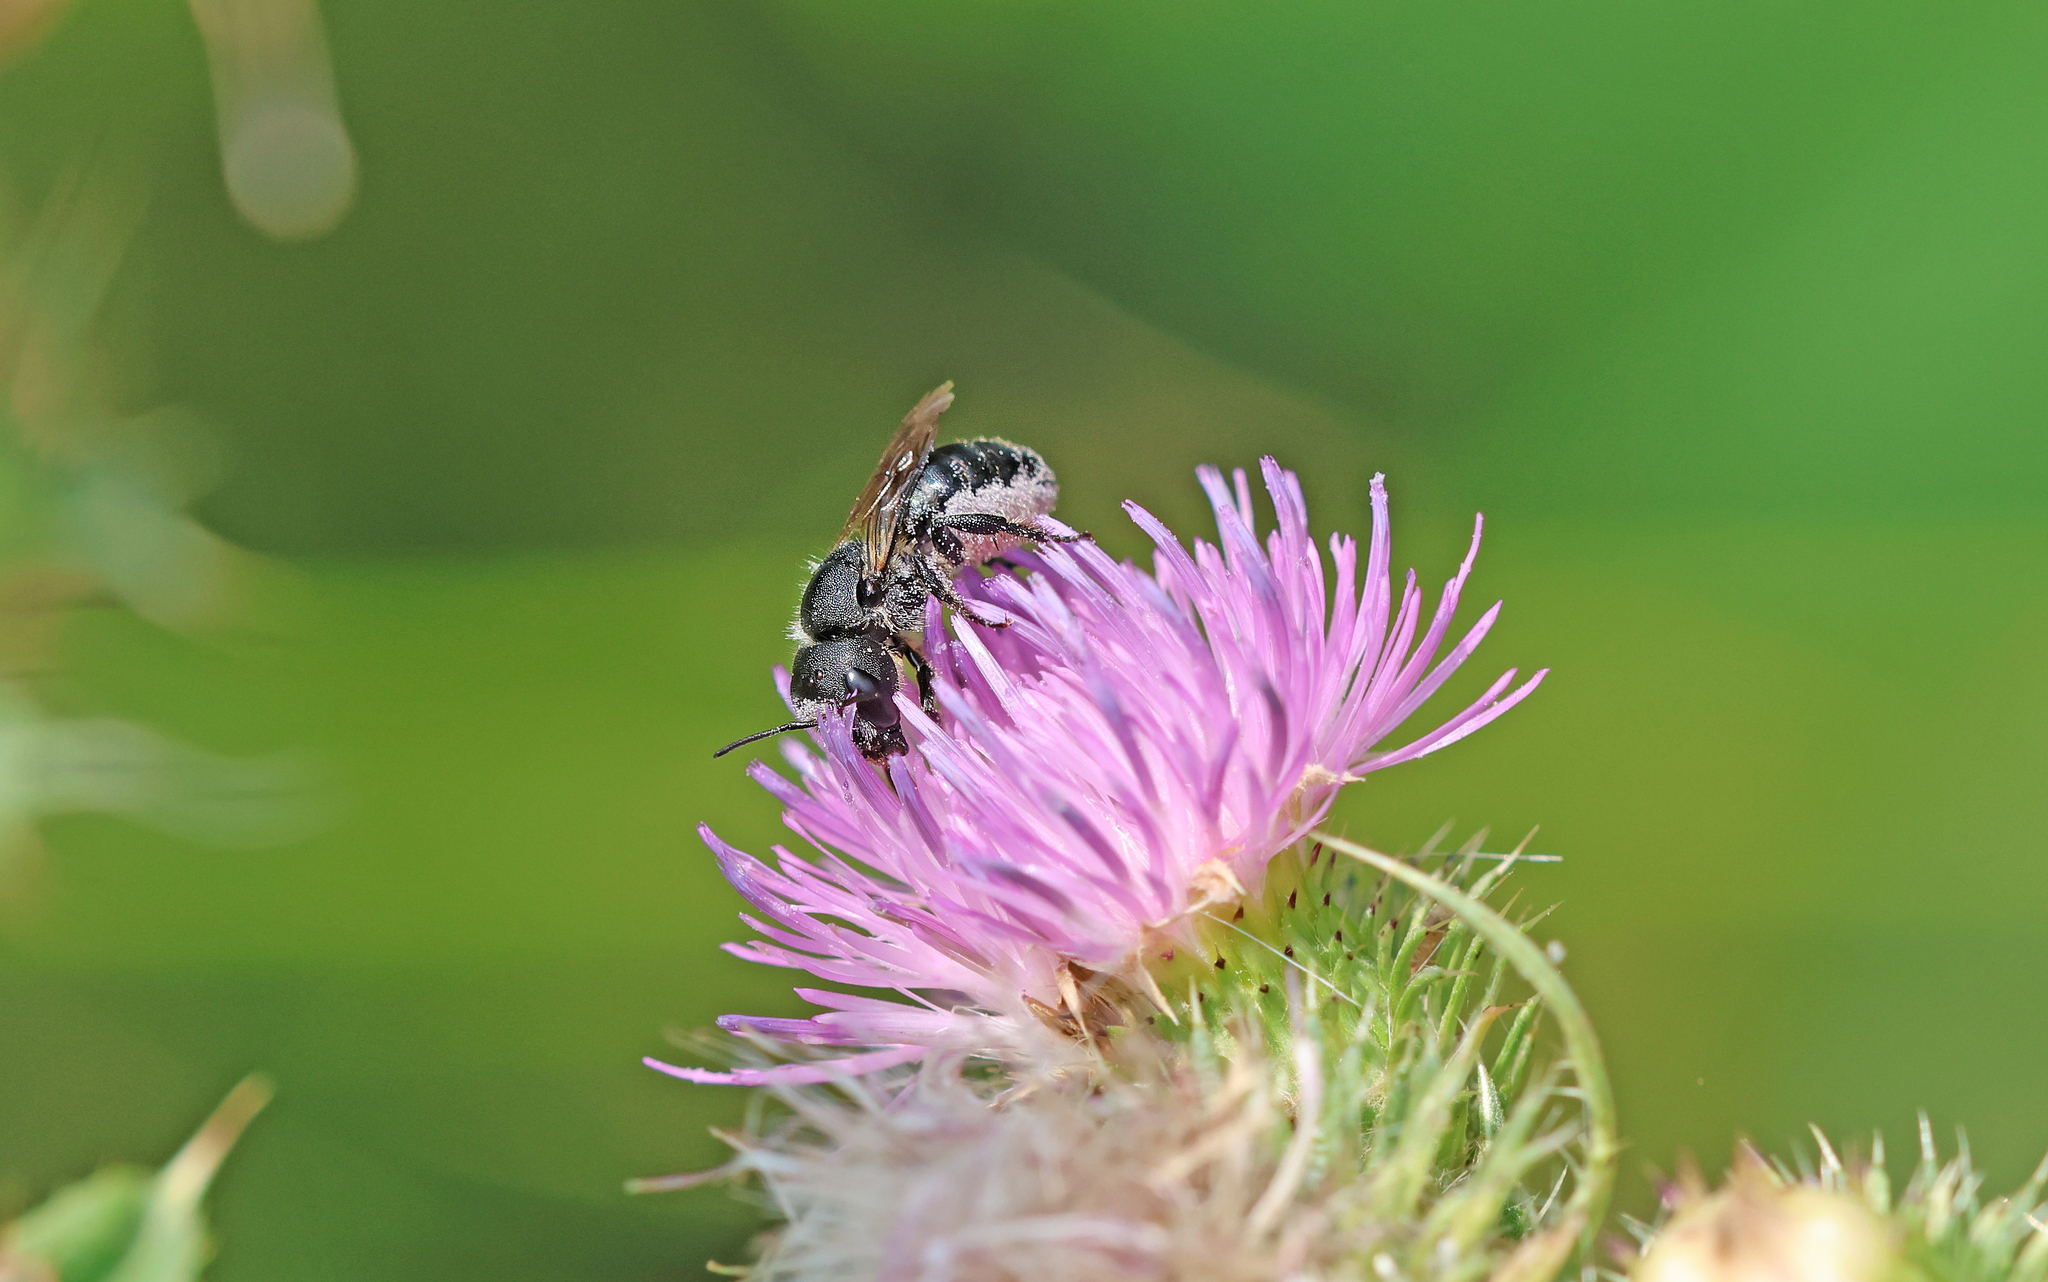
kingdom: Animalia
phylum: Arthropoda
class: Insecta
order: Hymenoptera
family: Megachilidae
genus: Osmia
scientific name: Osmia latreillei
